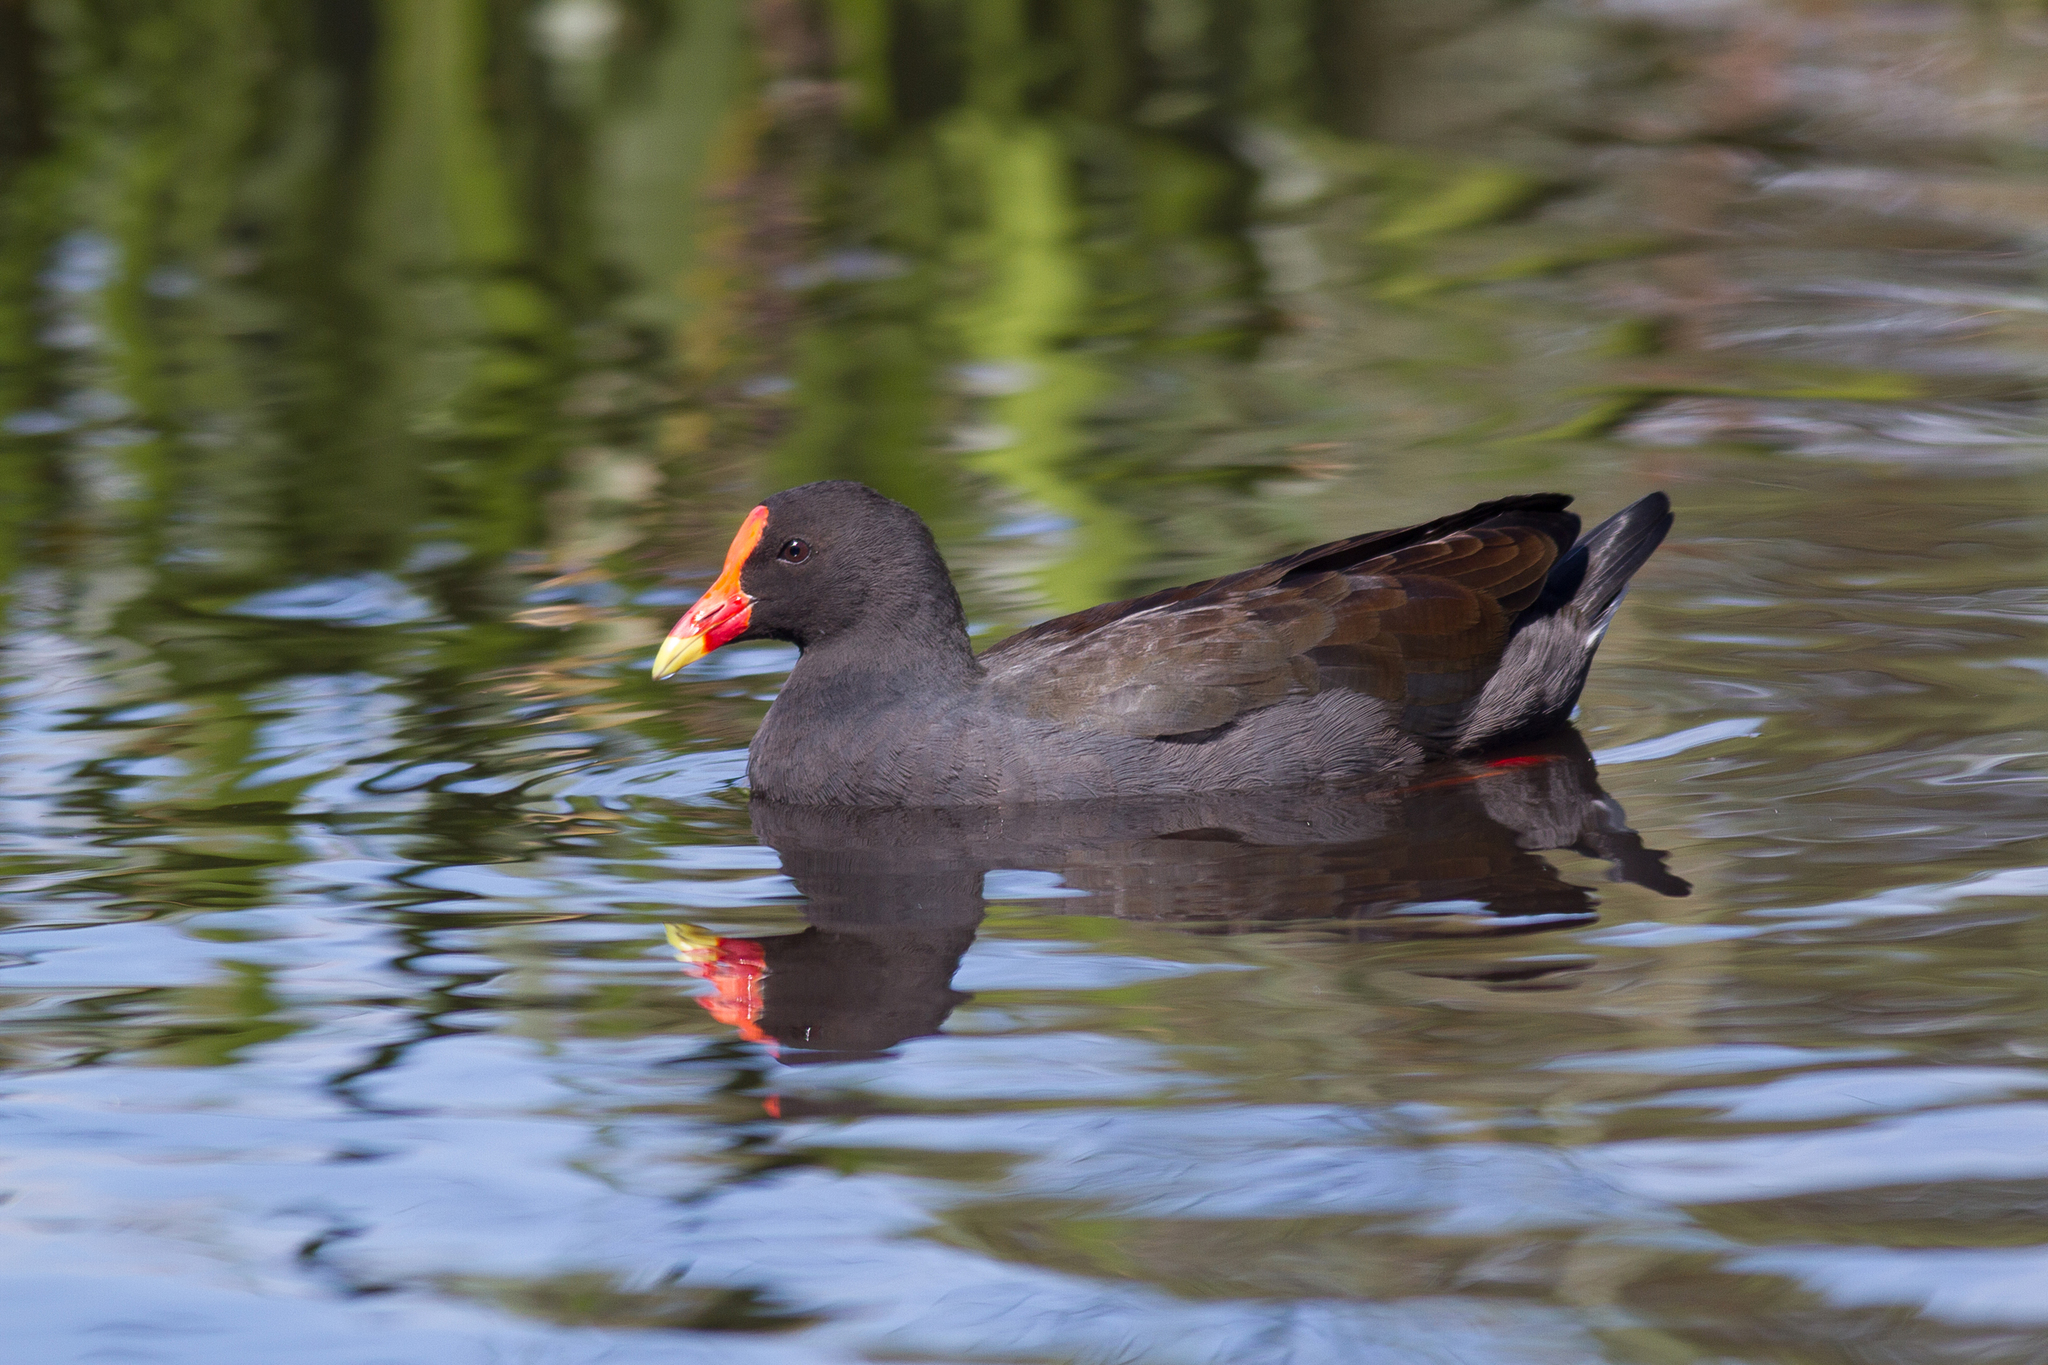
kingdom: Animalia
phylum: Chordata
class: Aves
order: Gruiformes
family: Rallidae
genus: Gallinula
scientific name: Gallinula tenebrosa
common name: Dusky moorhen
